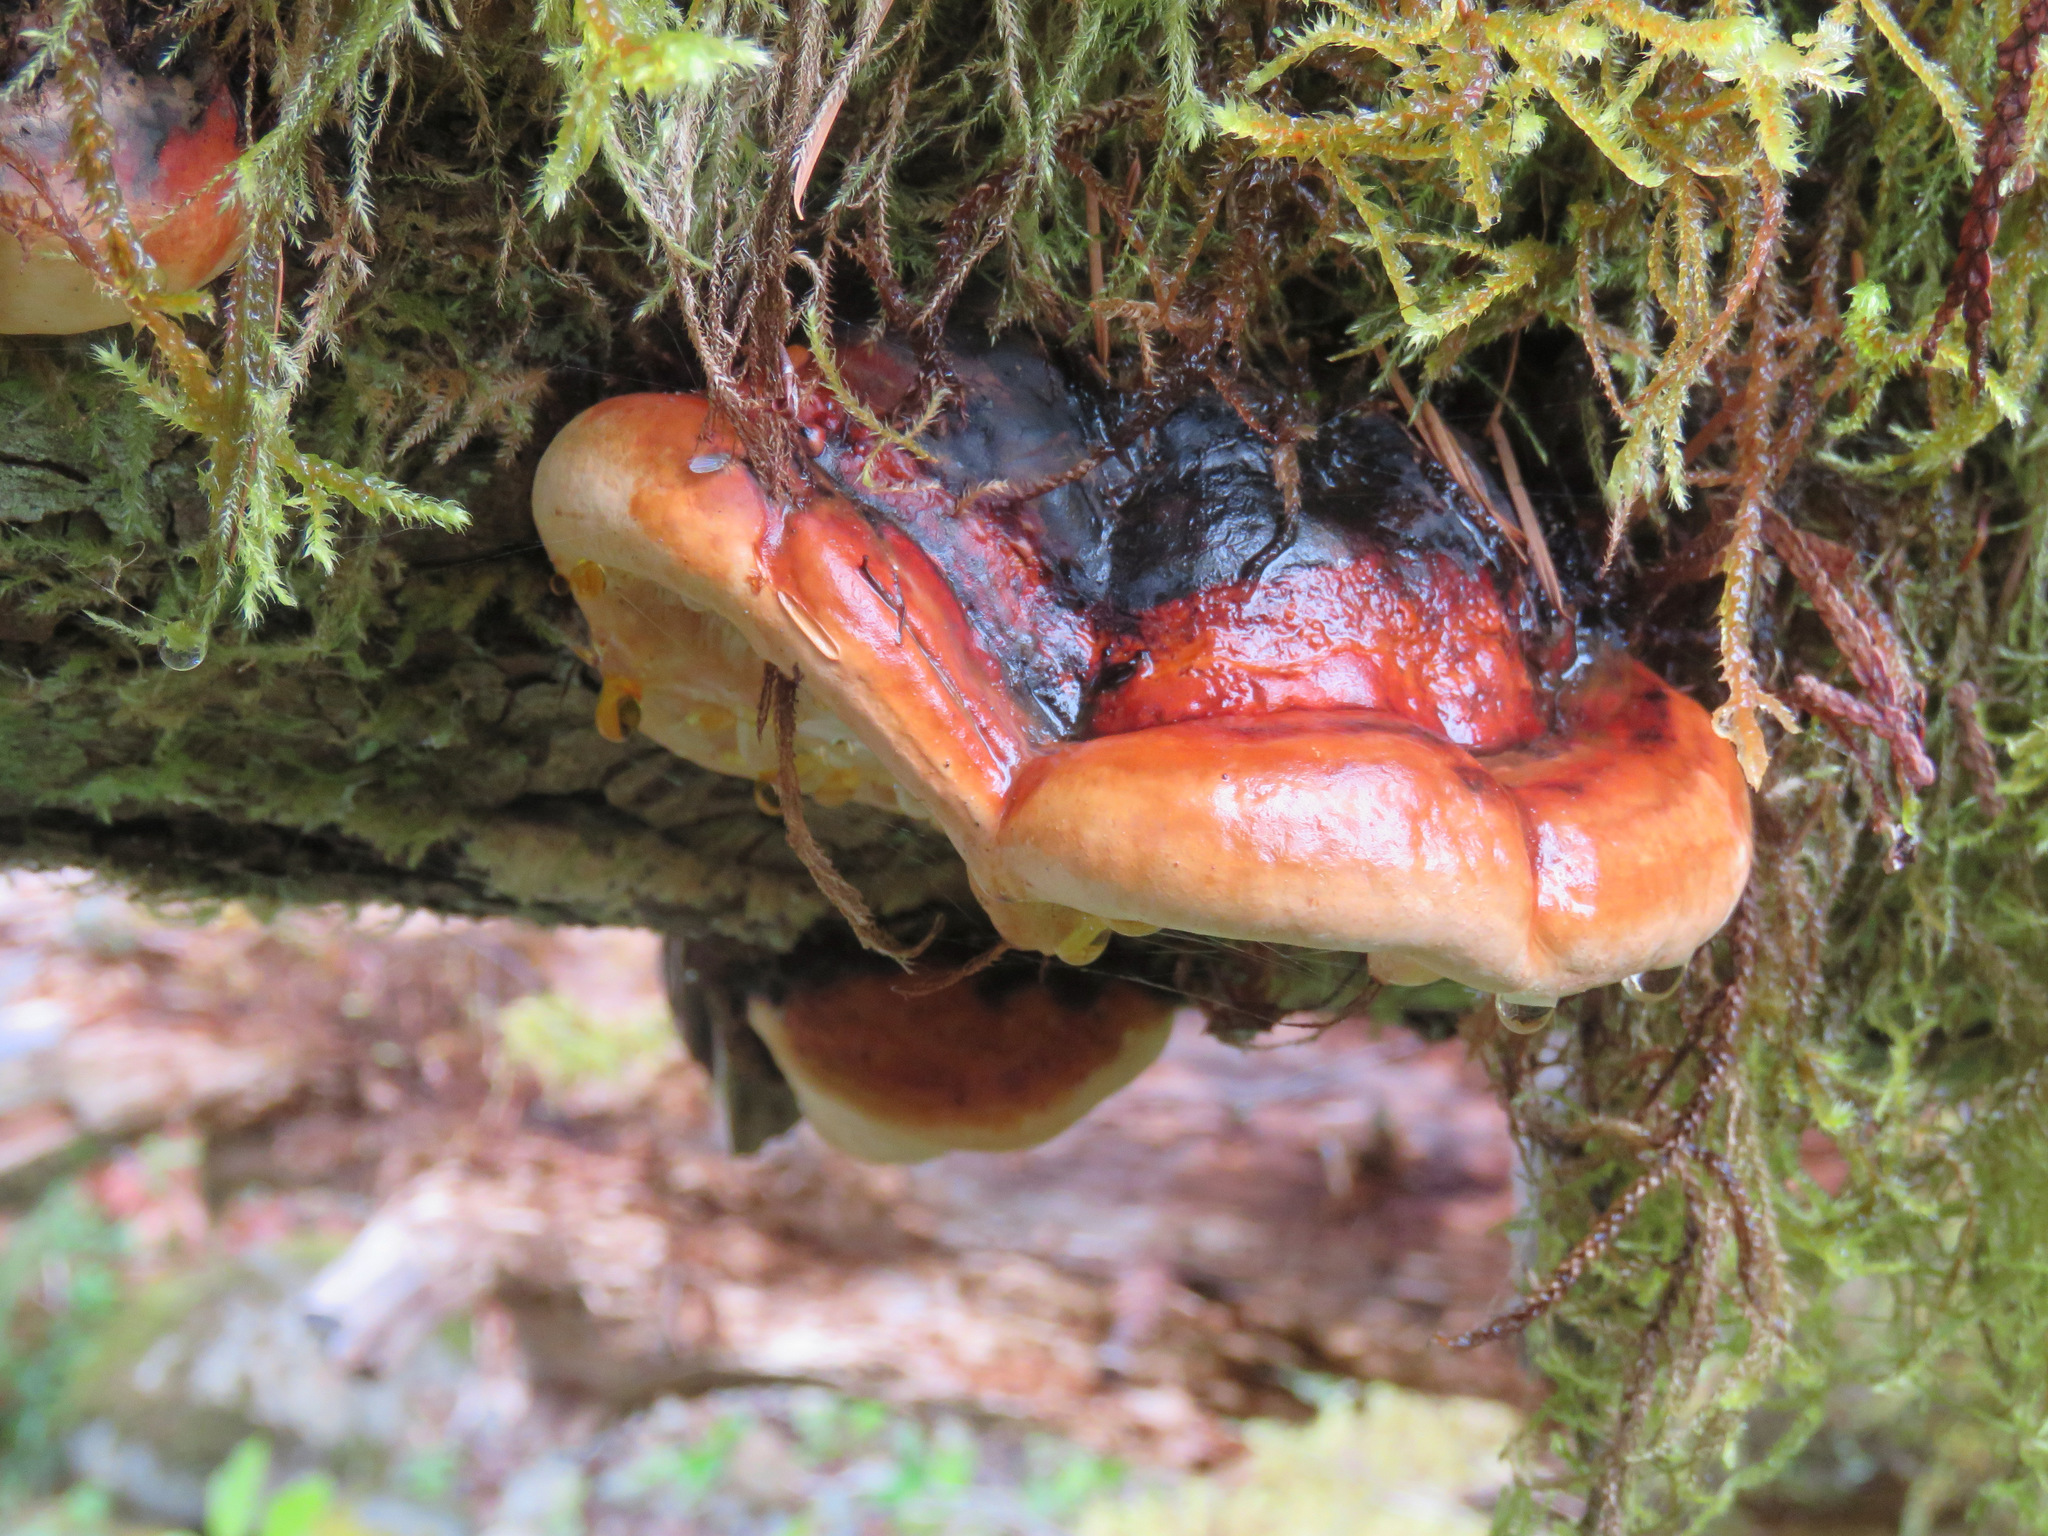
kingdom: Fungi
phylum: Basidiomycota
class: Agaricomycetes
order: Polyporales
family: Fomitopsidaceae
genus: Fomitopsis
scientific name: Fomitopsis mounceae
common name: Northern red belt
